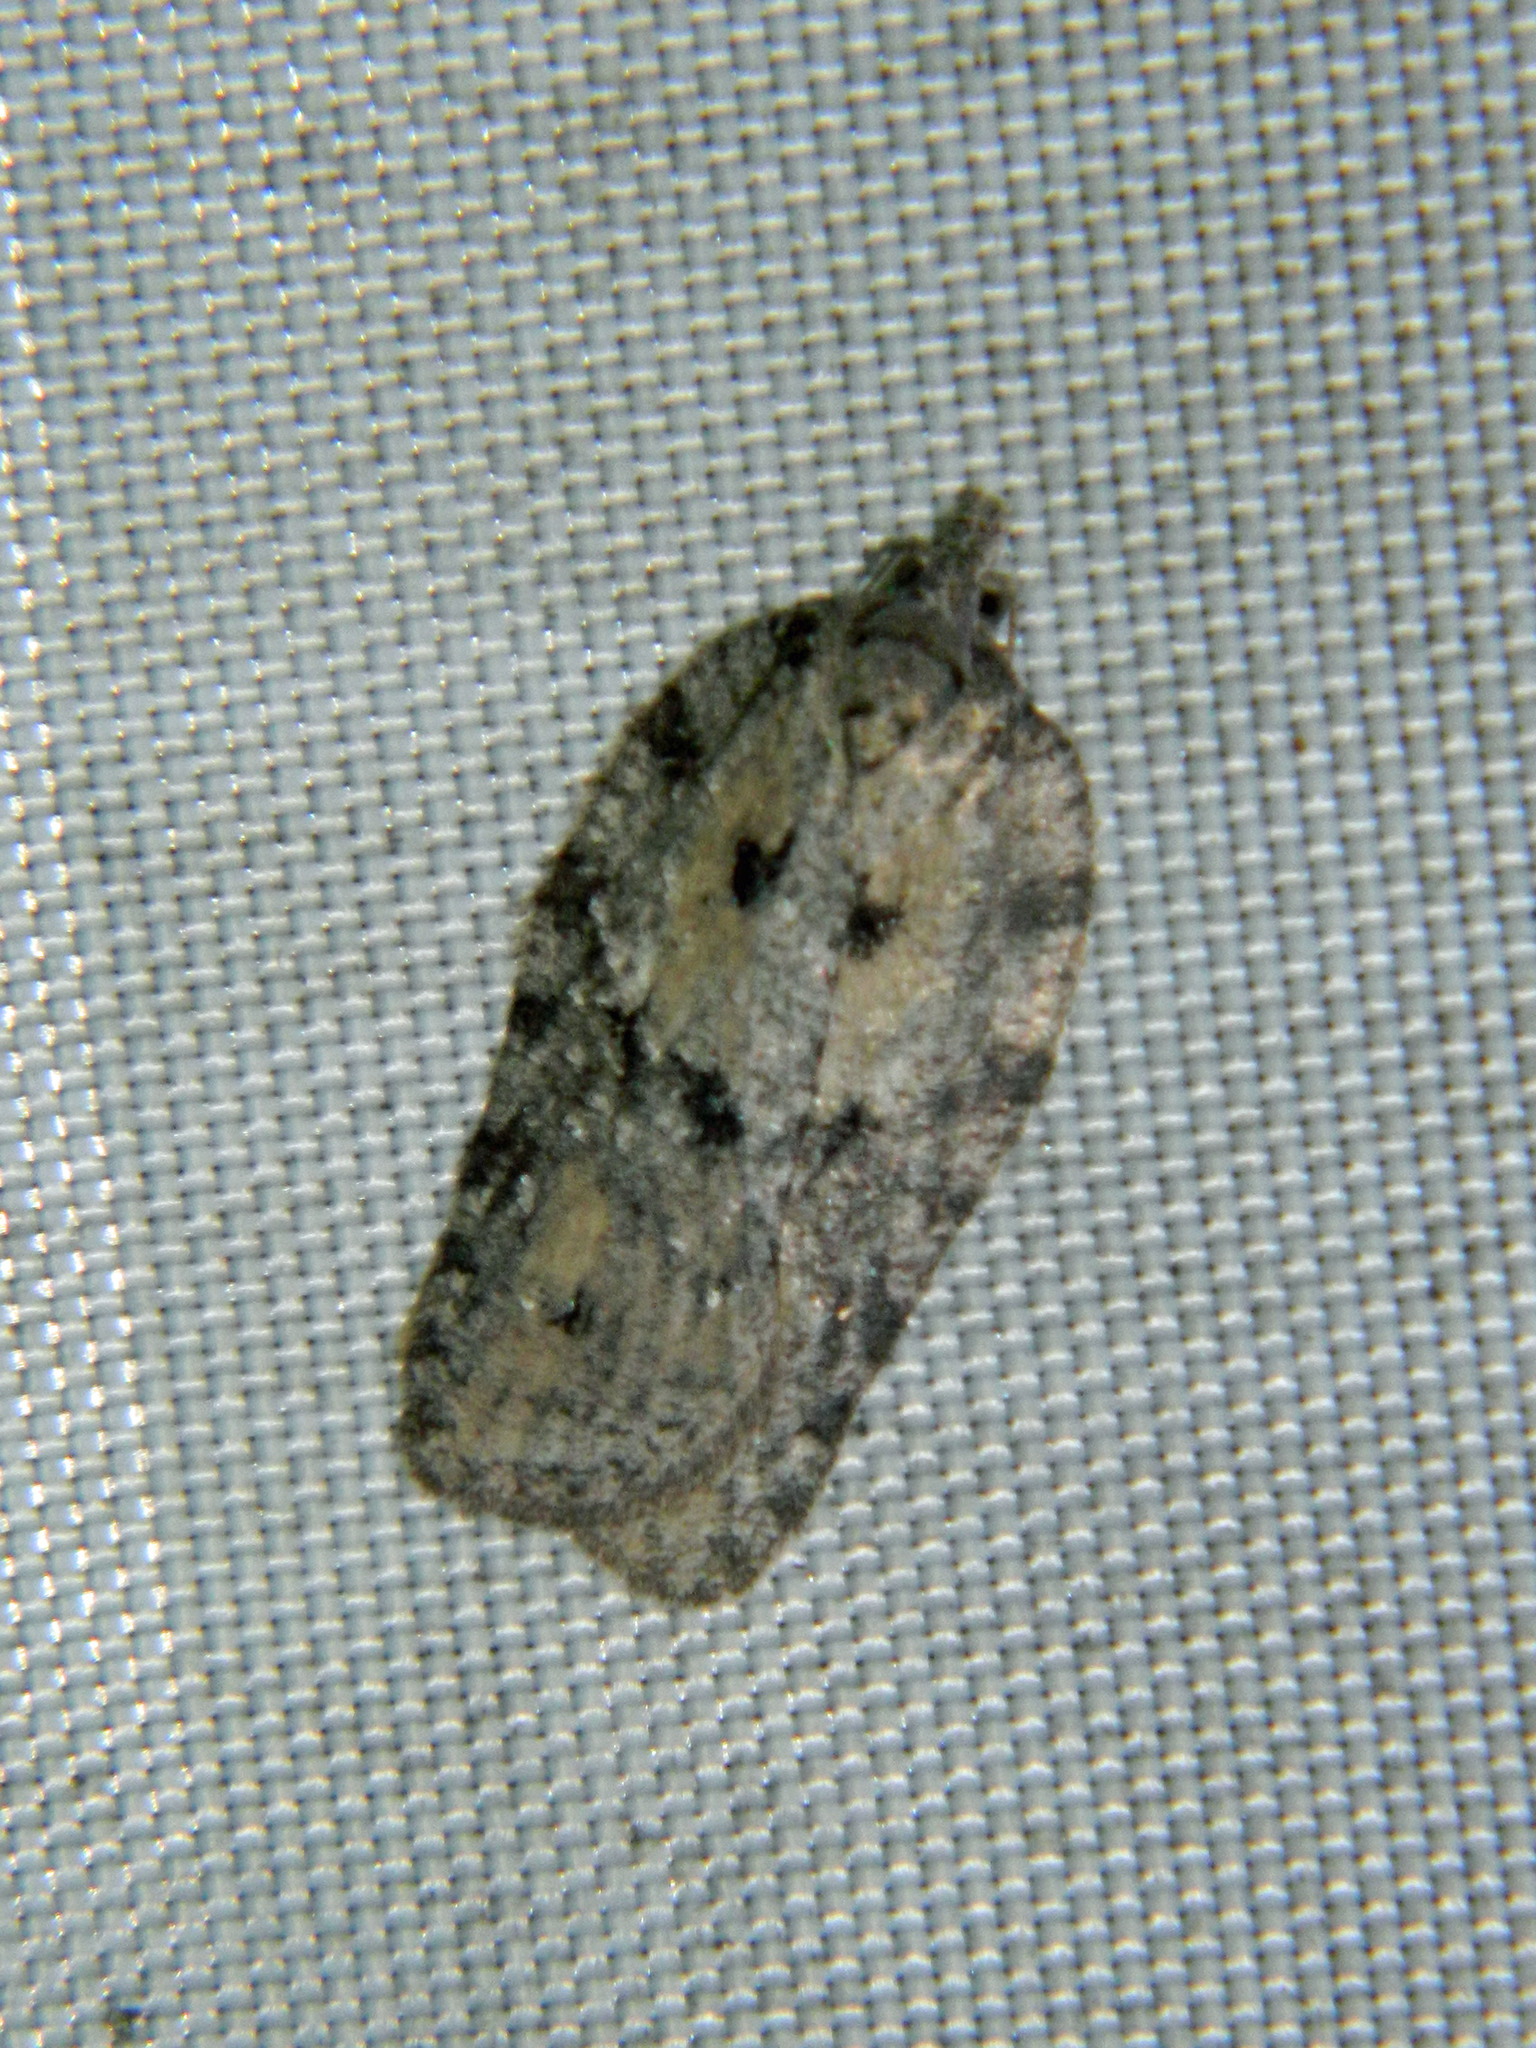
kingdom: Animalia
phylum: Arthropoda
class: Insecta
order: Lepidoptera
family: Tortricidae
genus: Acleris
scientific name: Acleris nigrolinea
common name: Black-lined acleris
